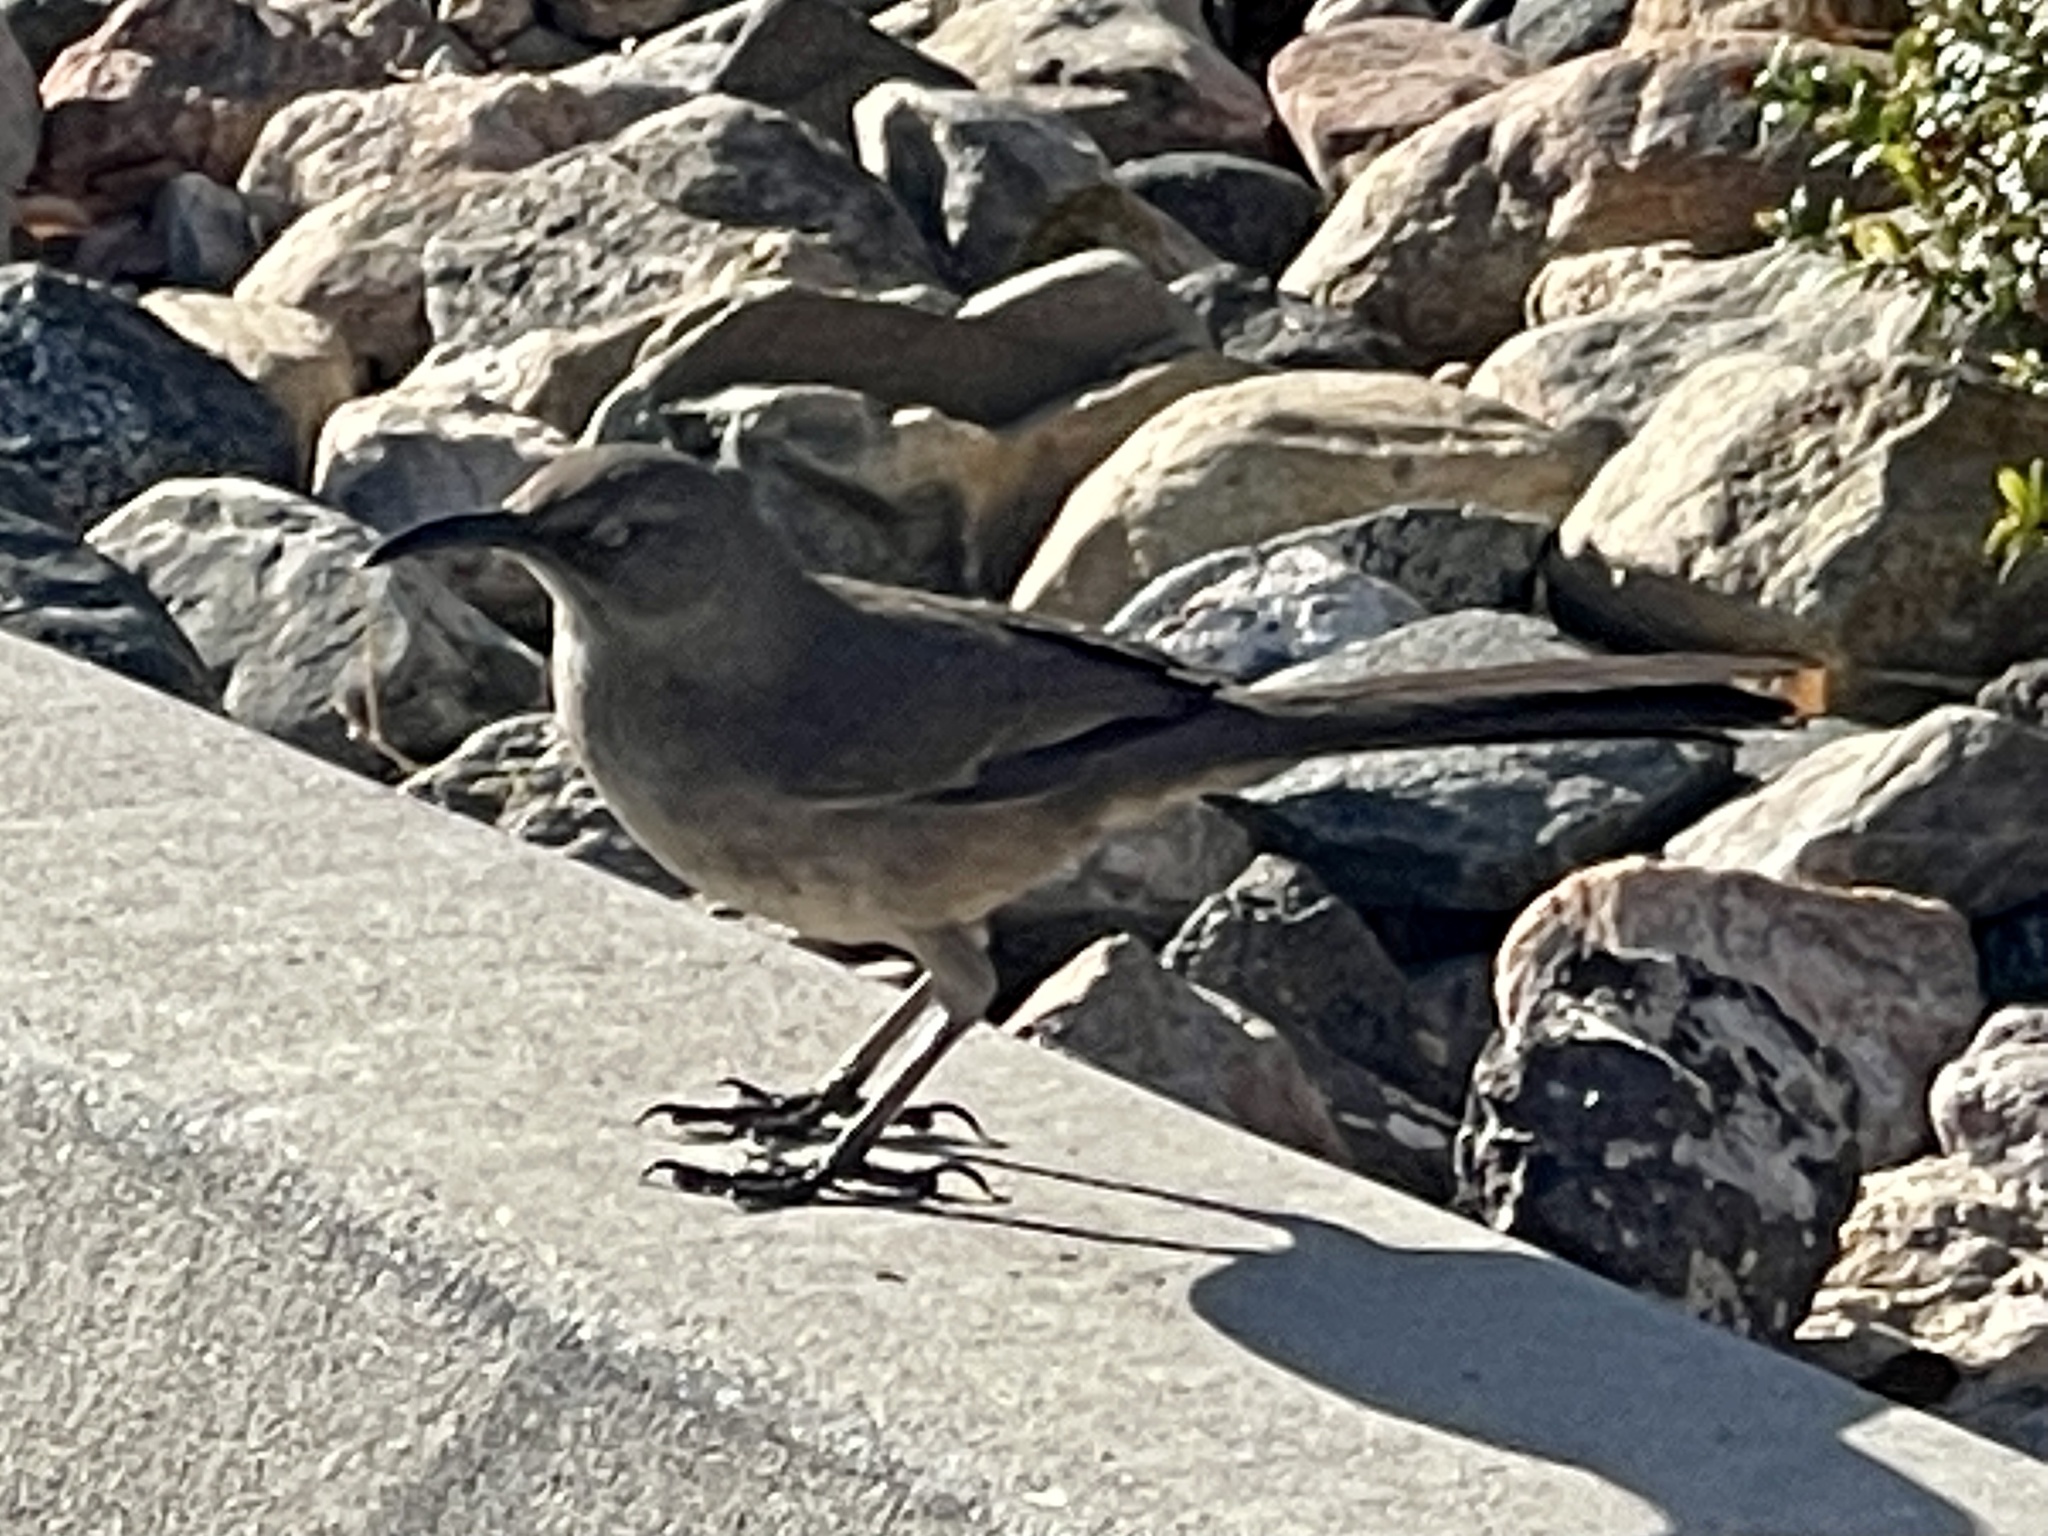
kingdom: Animalia
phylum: Chordata
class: Aves
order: Passeriformes
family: Mimidae
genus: Toxostoma
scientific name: Toxostoma curvirostre
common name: Curve-billed thrasher
